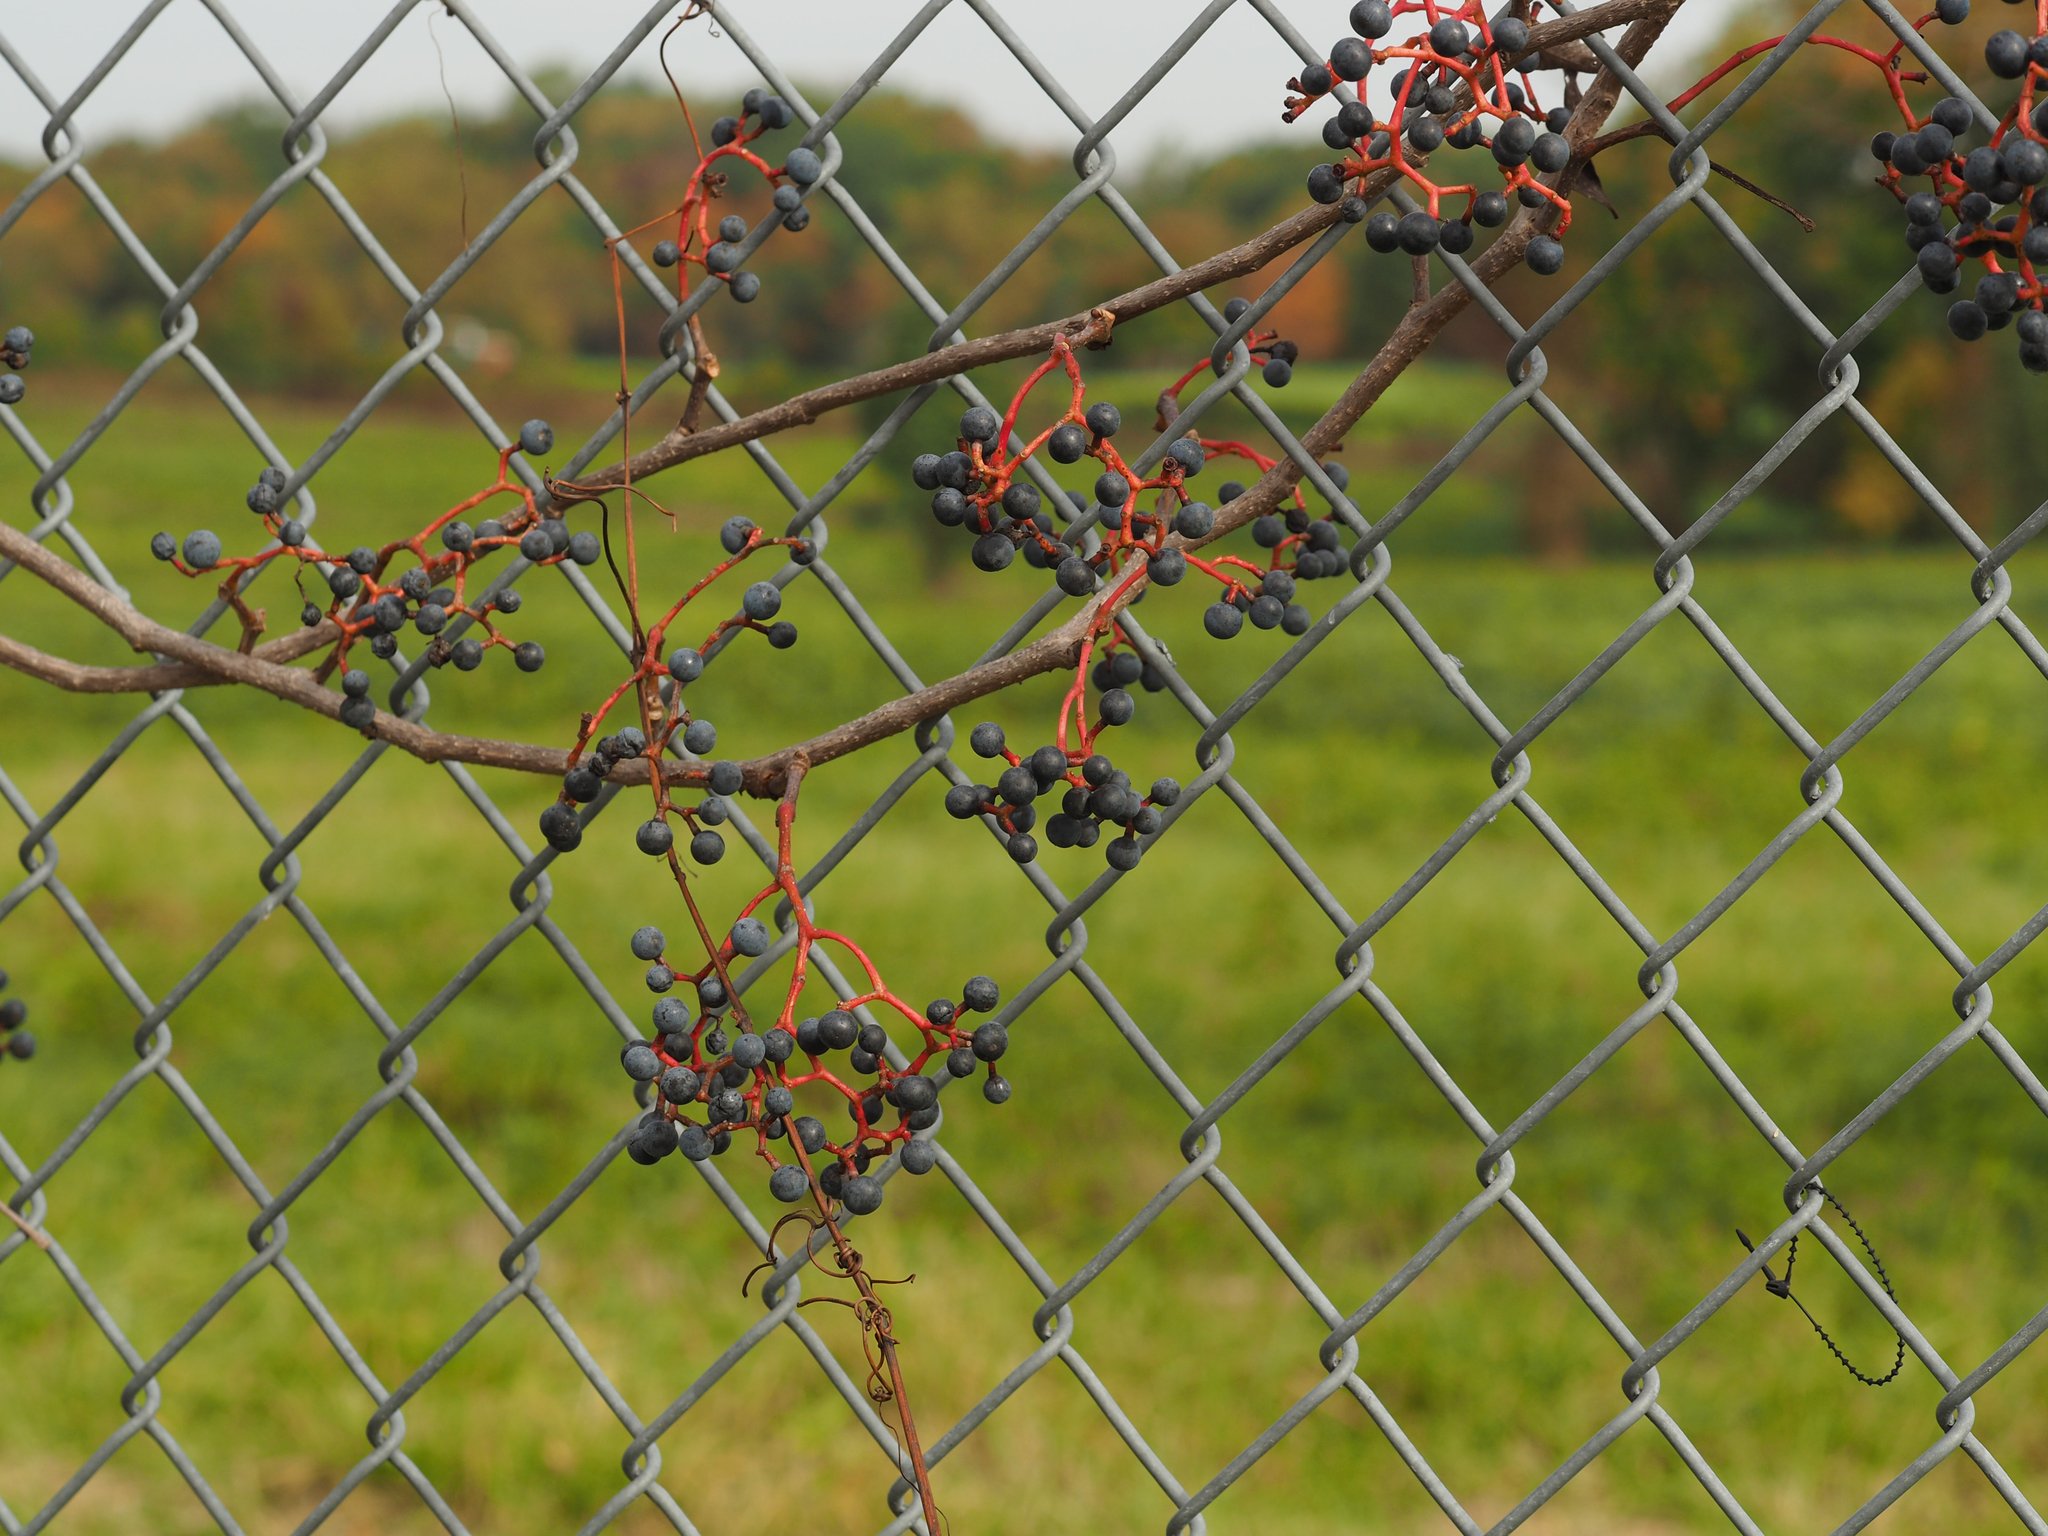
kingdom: Plantae
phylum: Tracheophyta
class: Magnoliopsida
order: Vitales
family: Vitaceae
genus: Parthenocissus
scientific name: Parthenocissus quinquefolia
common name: Virginia-creeper
